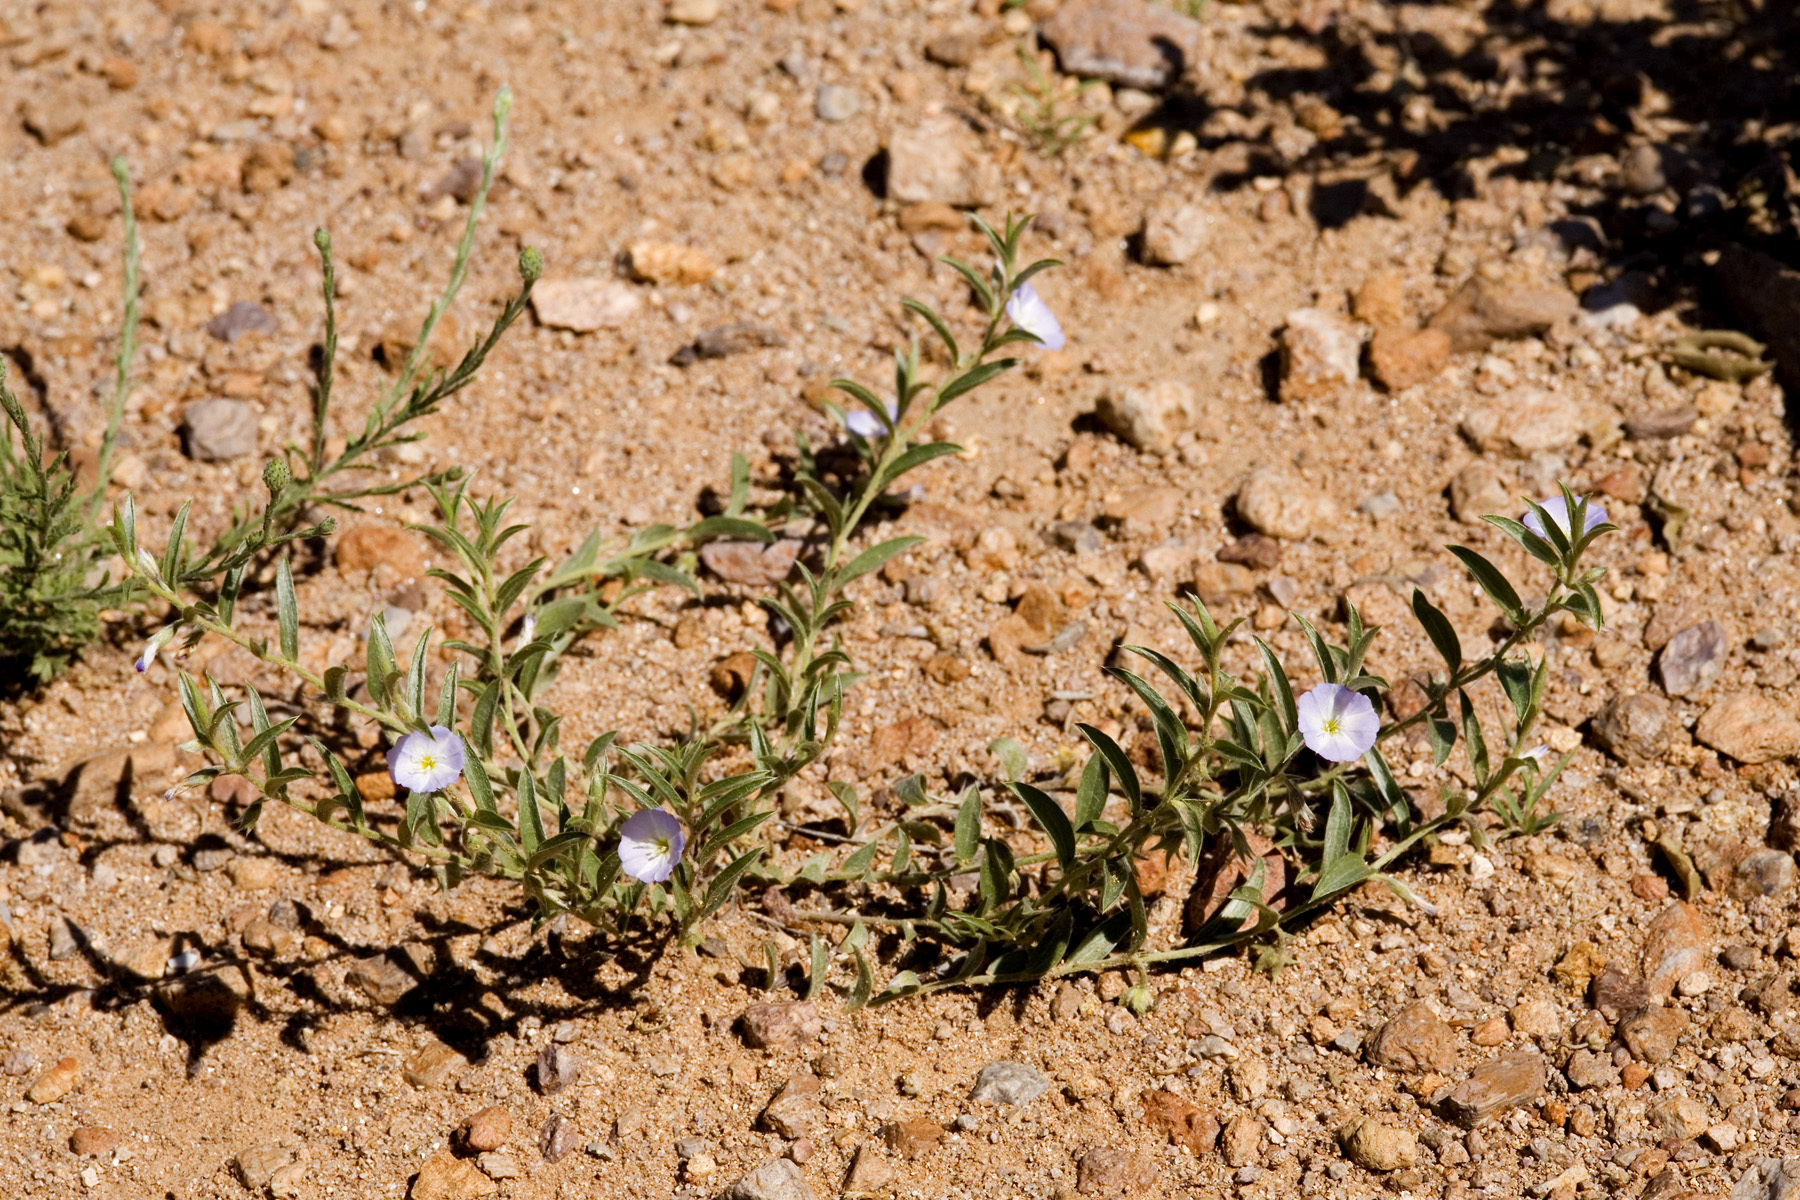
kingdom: Plantae
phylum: Tracheophyta
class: Magnoliopsida
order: Solanales
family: Convolvulaceae
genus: Evolvulus
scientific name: Evolvulus sericeus
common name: Blue dots
